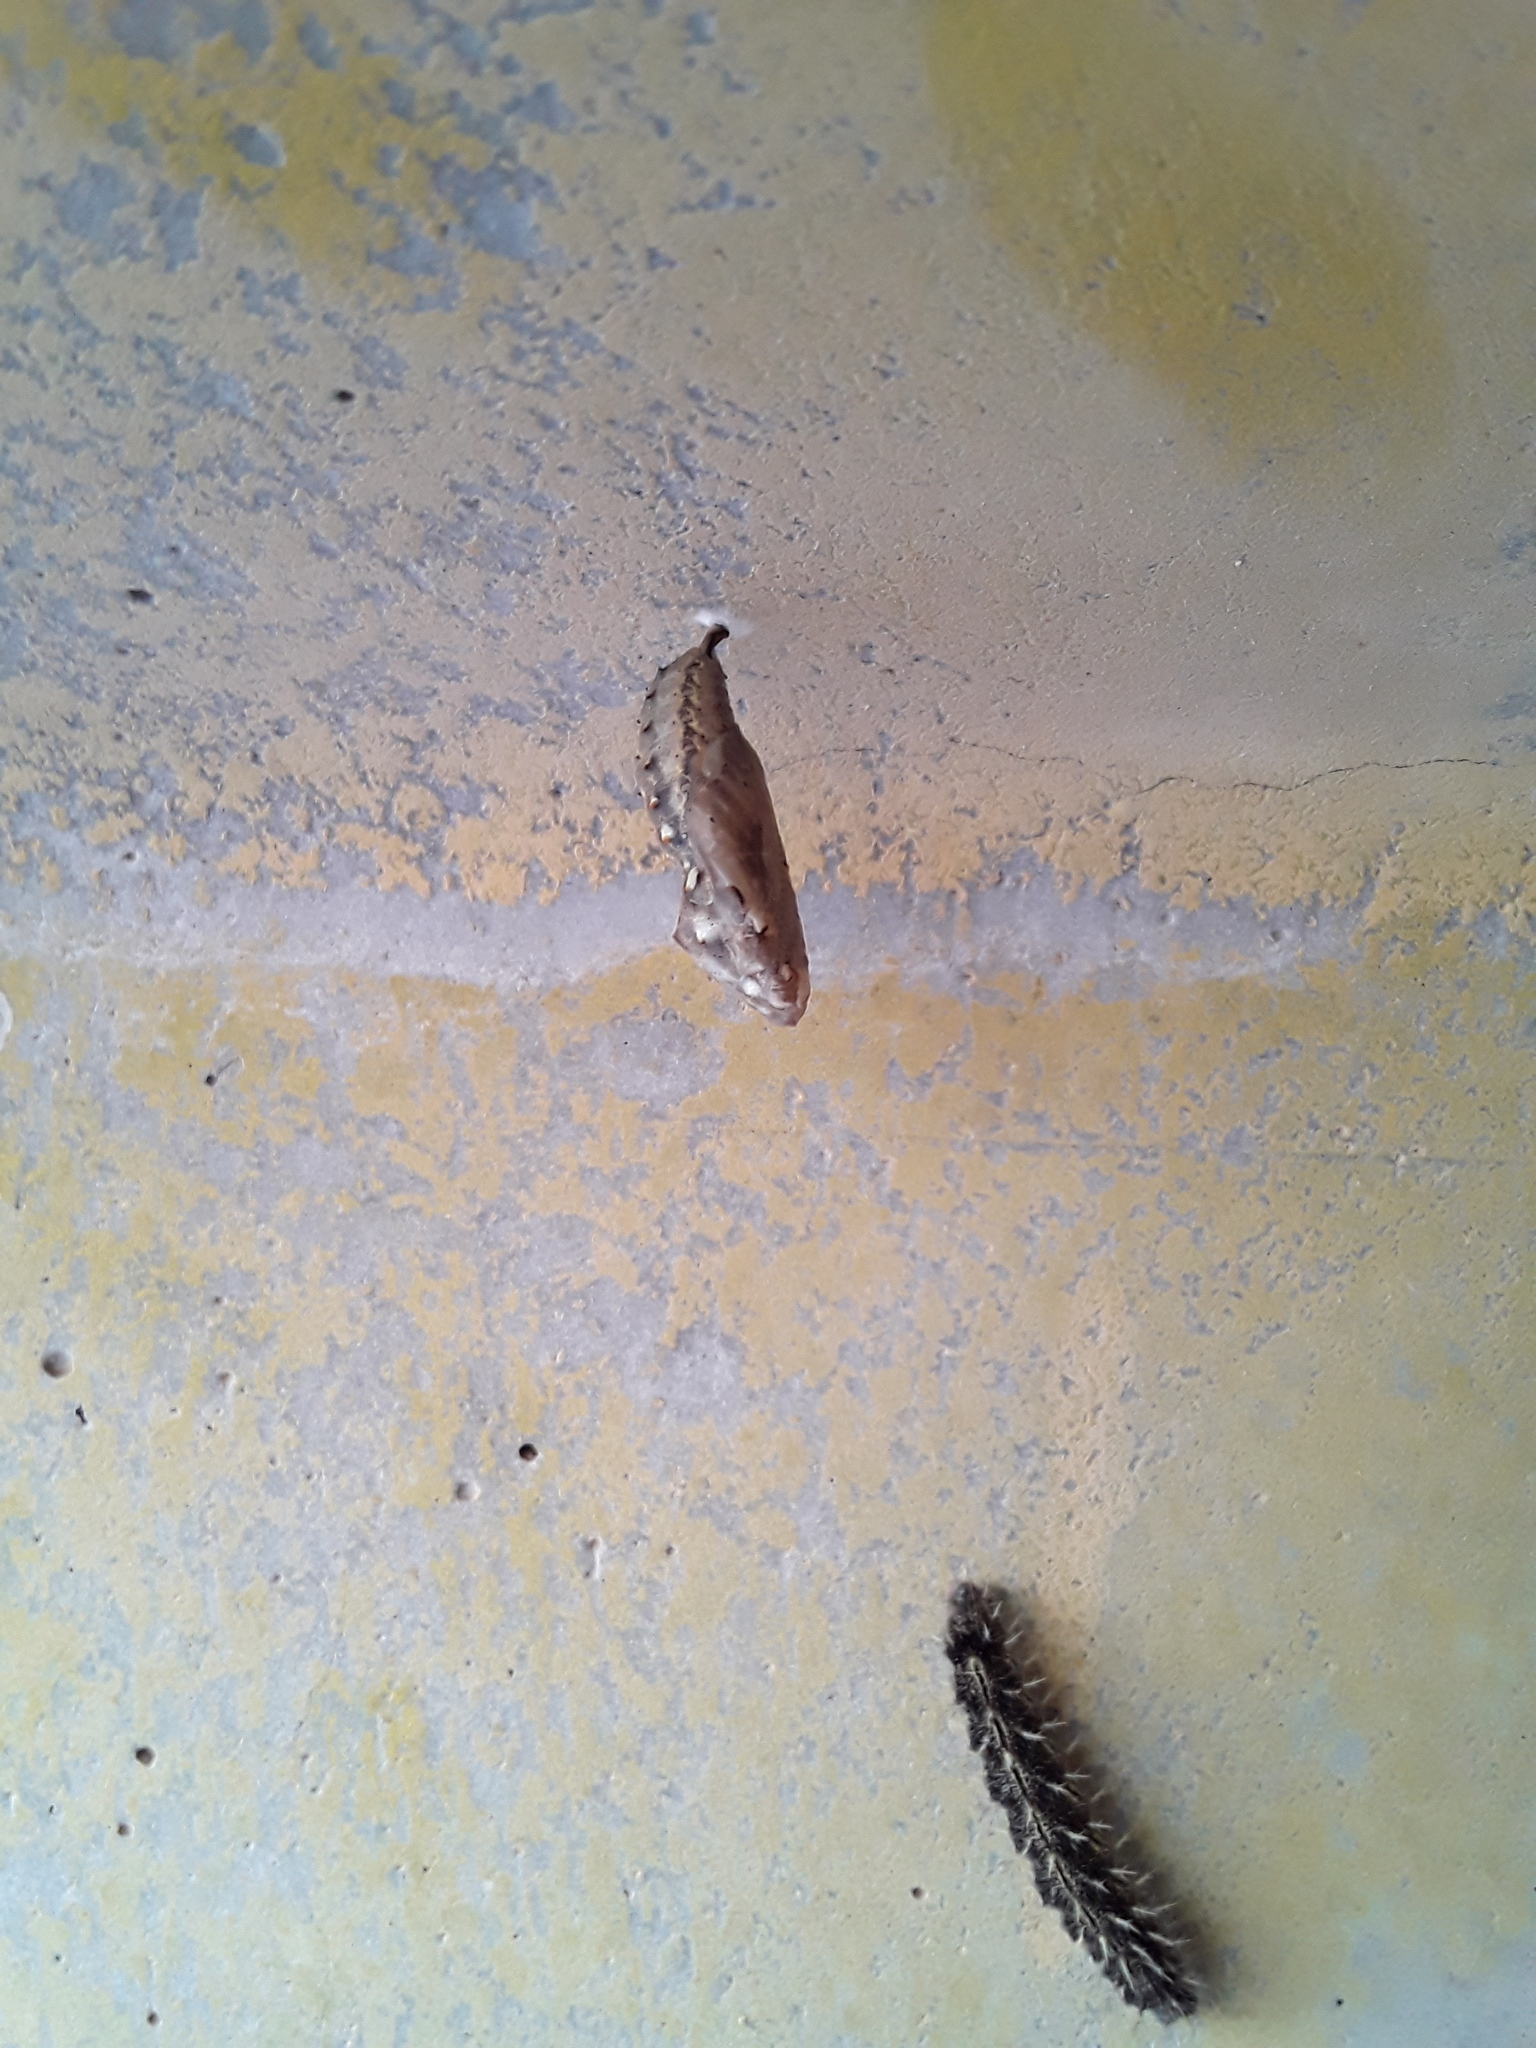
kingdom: Animalia
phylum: Arthropoda
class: Insecta
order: Lepidoptera
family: Nymphalidae
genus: Vanessa
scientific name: Vanessa cardui
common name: Painted lady
